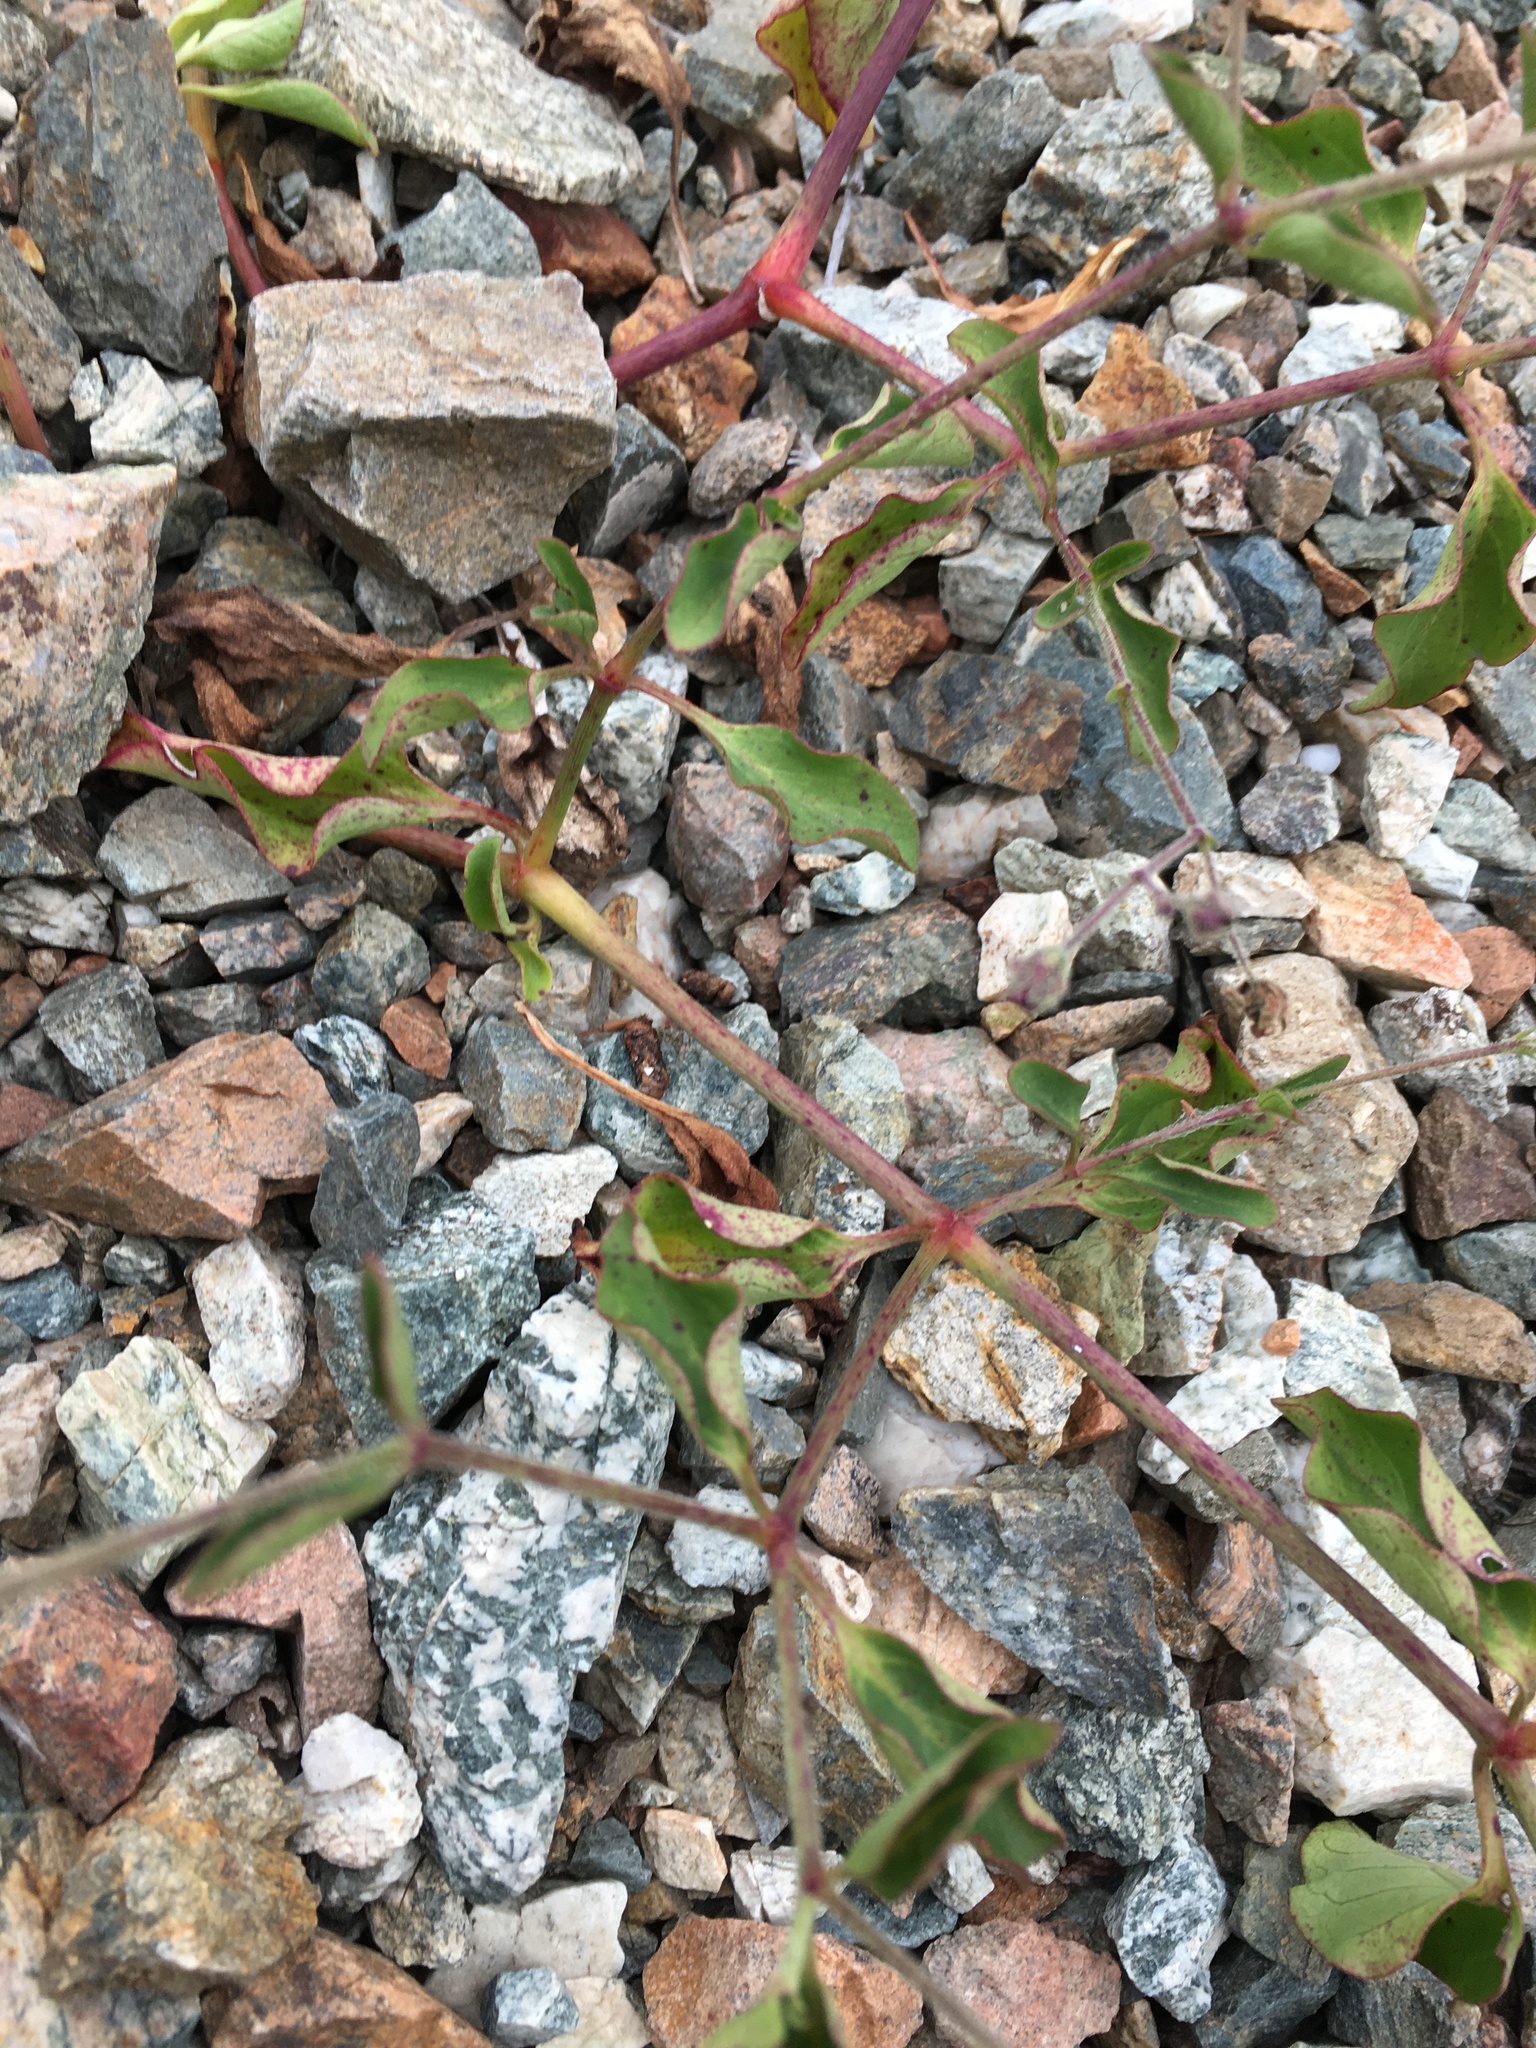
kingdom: Plantae
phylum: Tracheophyta
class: Magnoliopsida
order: Caryophyllales
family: Nyctaginaceae
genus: Mirabilis
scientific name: Mirabilis acuta
